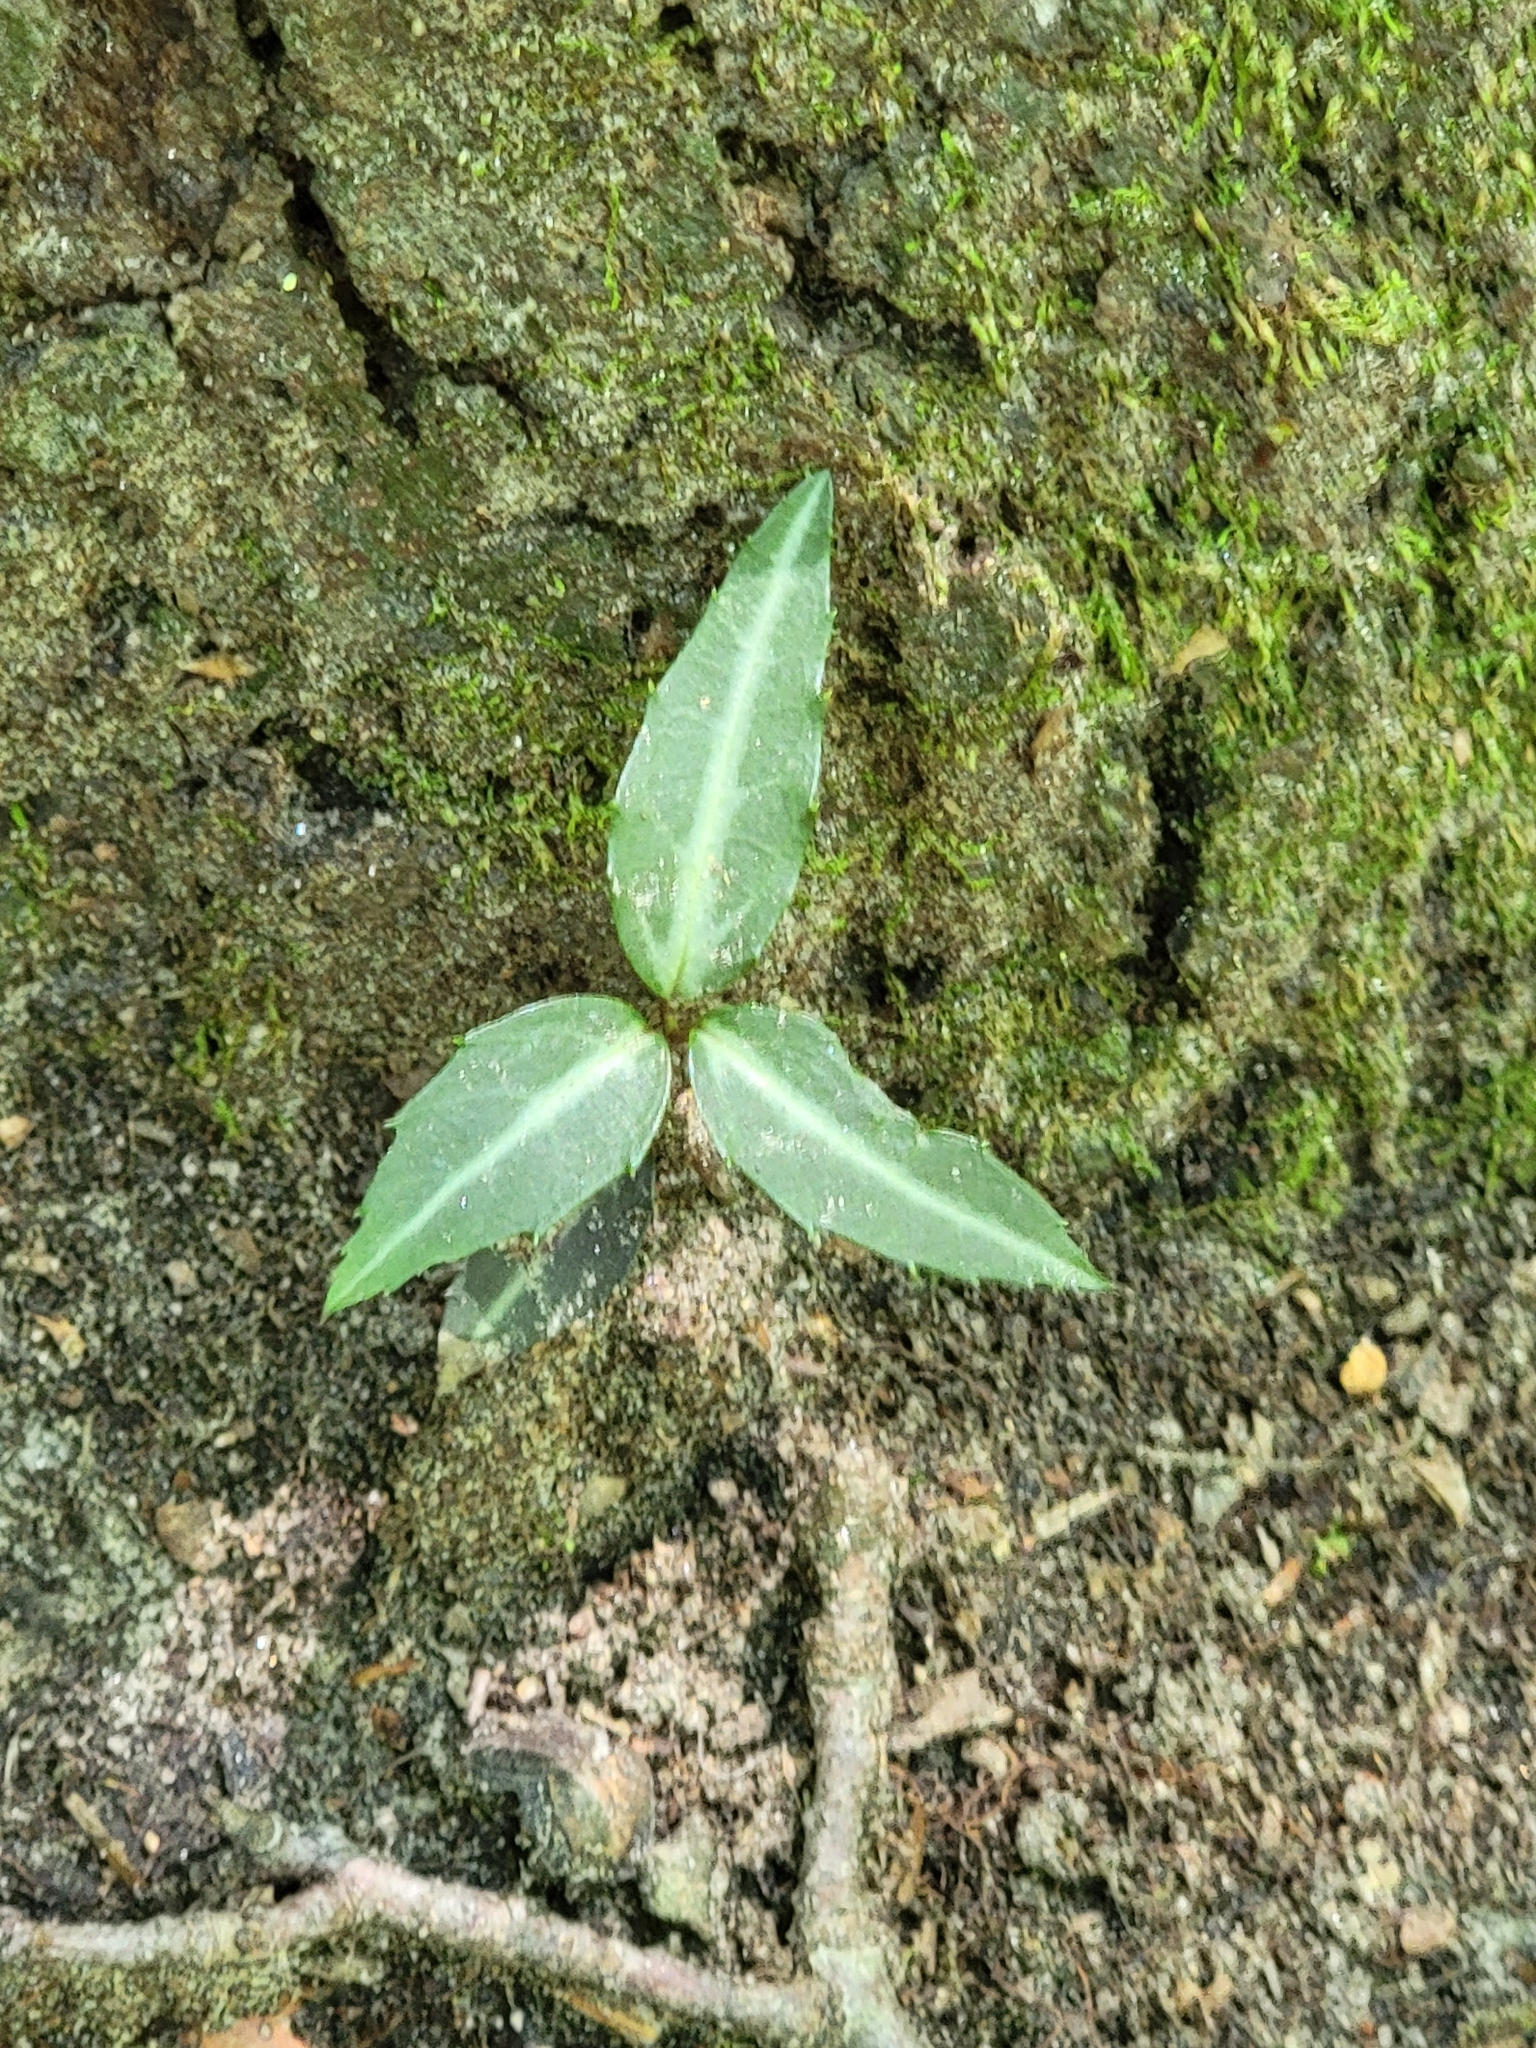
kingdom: Plantae
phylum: Tracheophyta
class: Magnoliopsida
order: Ericales
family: Ericaceae
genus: Chimaphila
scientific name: Chimaphila maculata
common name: Spotted pipsissewa
